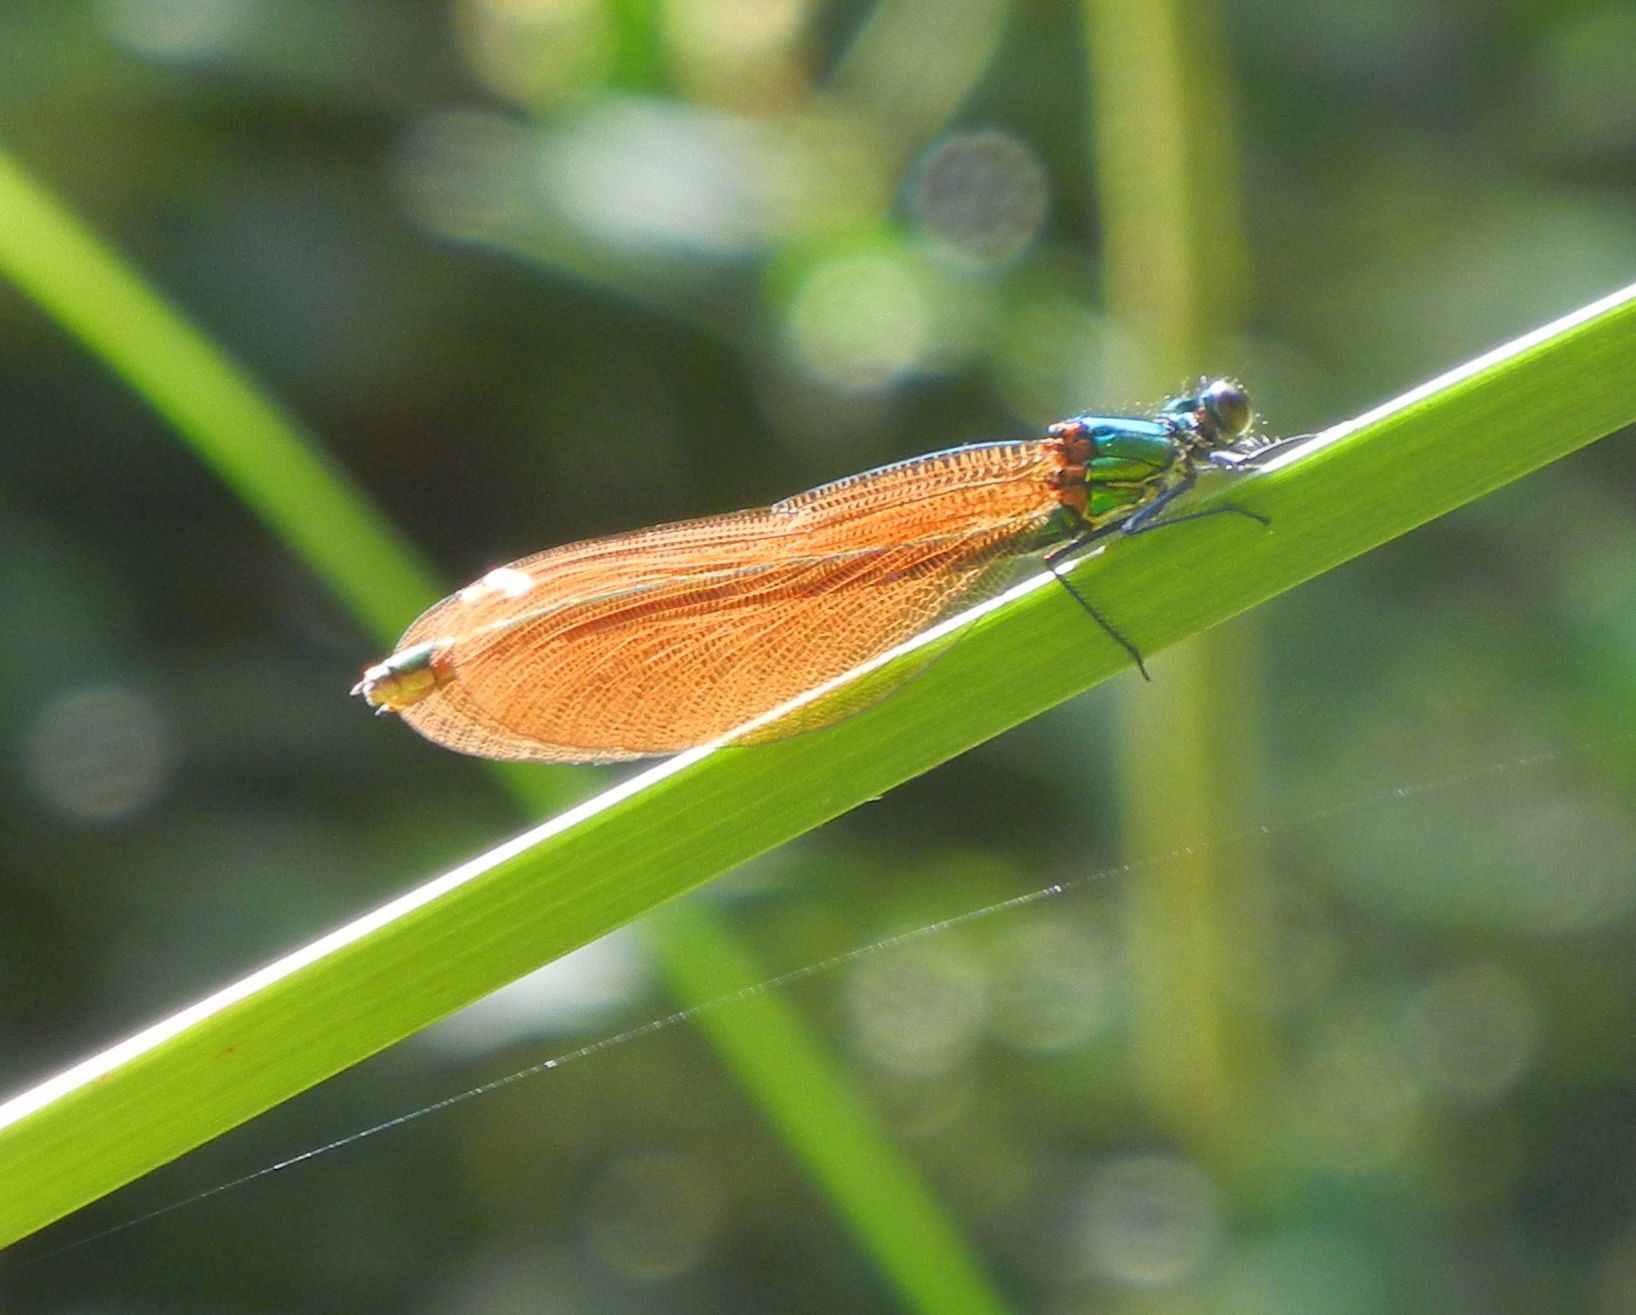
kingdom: Animalia
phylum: Arthropoda
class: Insecta
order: Odonata
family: Calopterygidae
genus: Calopteryx
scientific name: Calopteryx virgo
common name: Beautiful demoiselle
